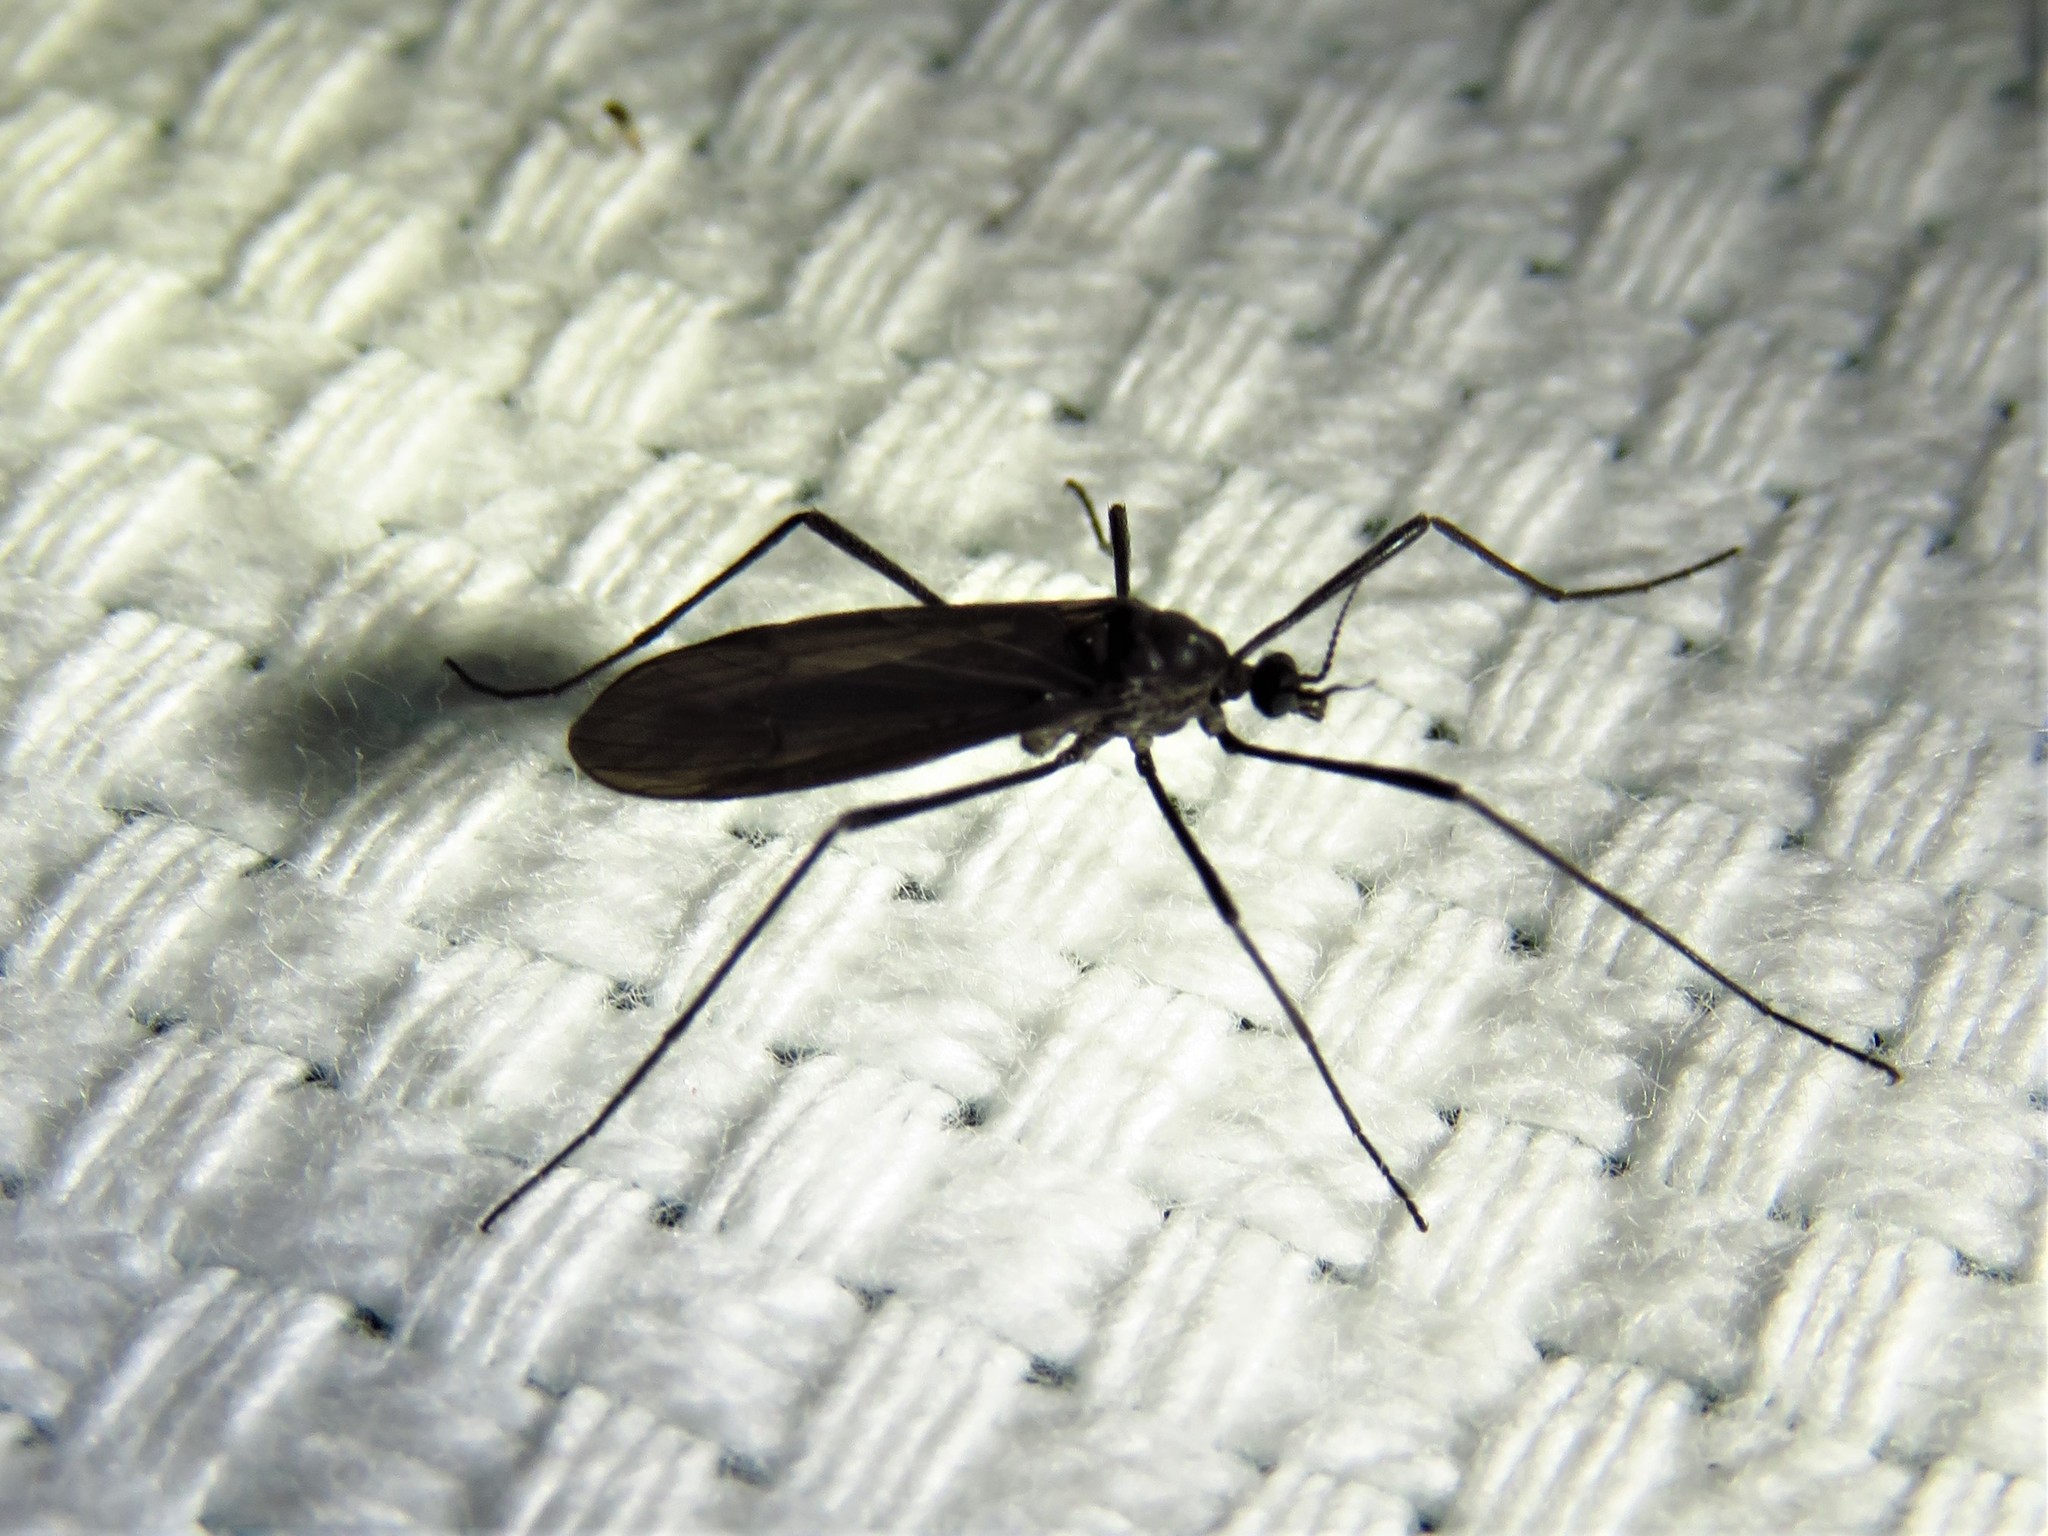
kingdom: Animalia
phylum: Arthropoda
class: Insecta
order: Diptera
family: Limoniidae
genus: Eugnophomyia
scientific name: Eugnophomyia luctuosa
